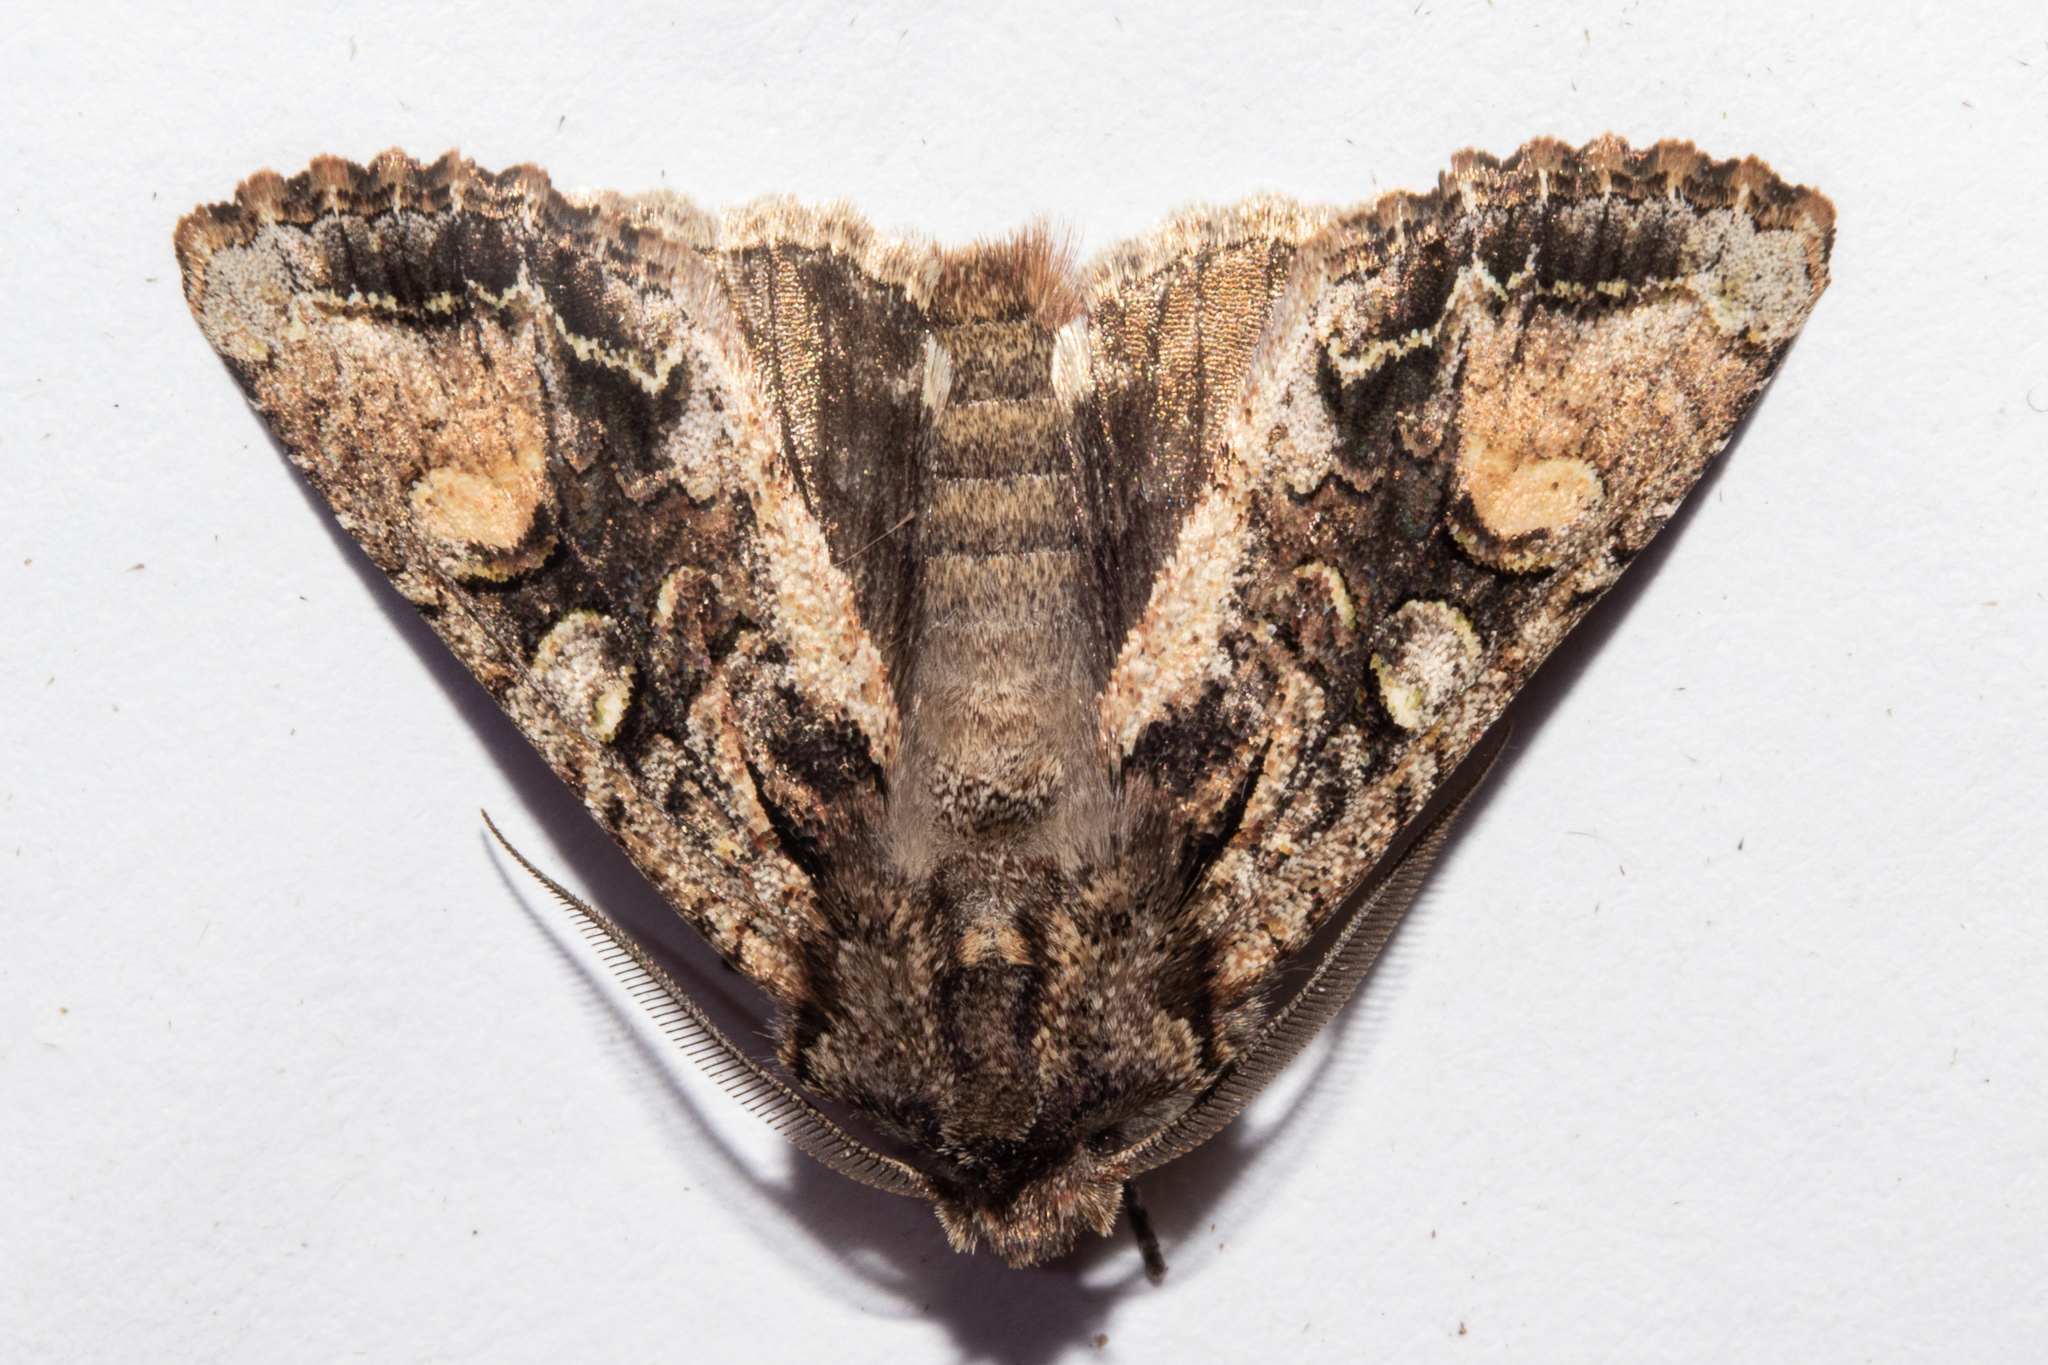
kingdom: Animalia
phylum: Arthropoda
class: Insecta
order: Lepidoptera
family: Noctuidae
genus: Ichneutica
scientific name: Ichneutica
